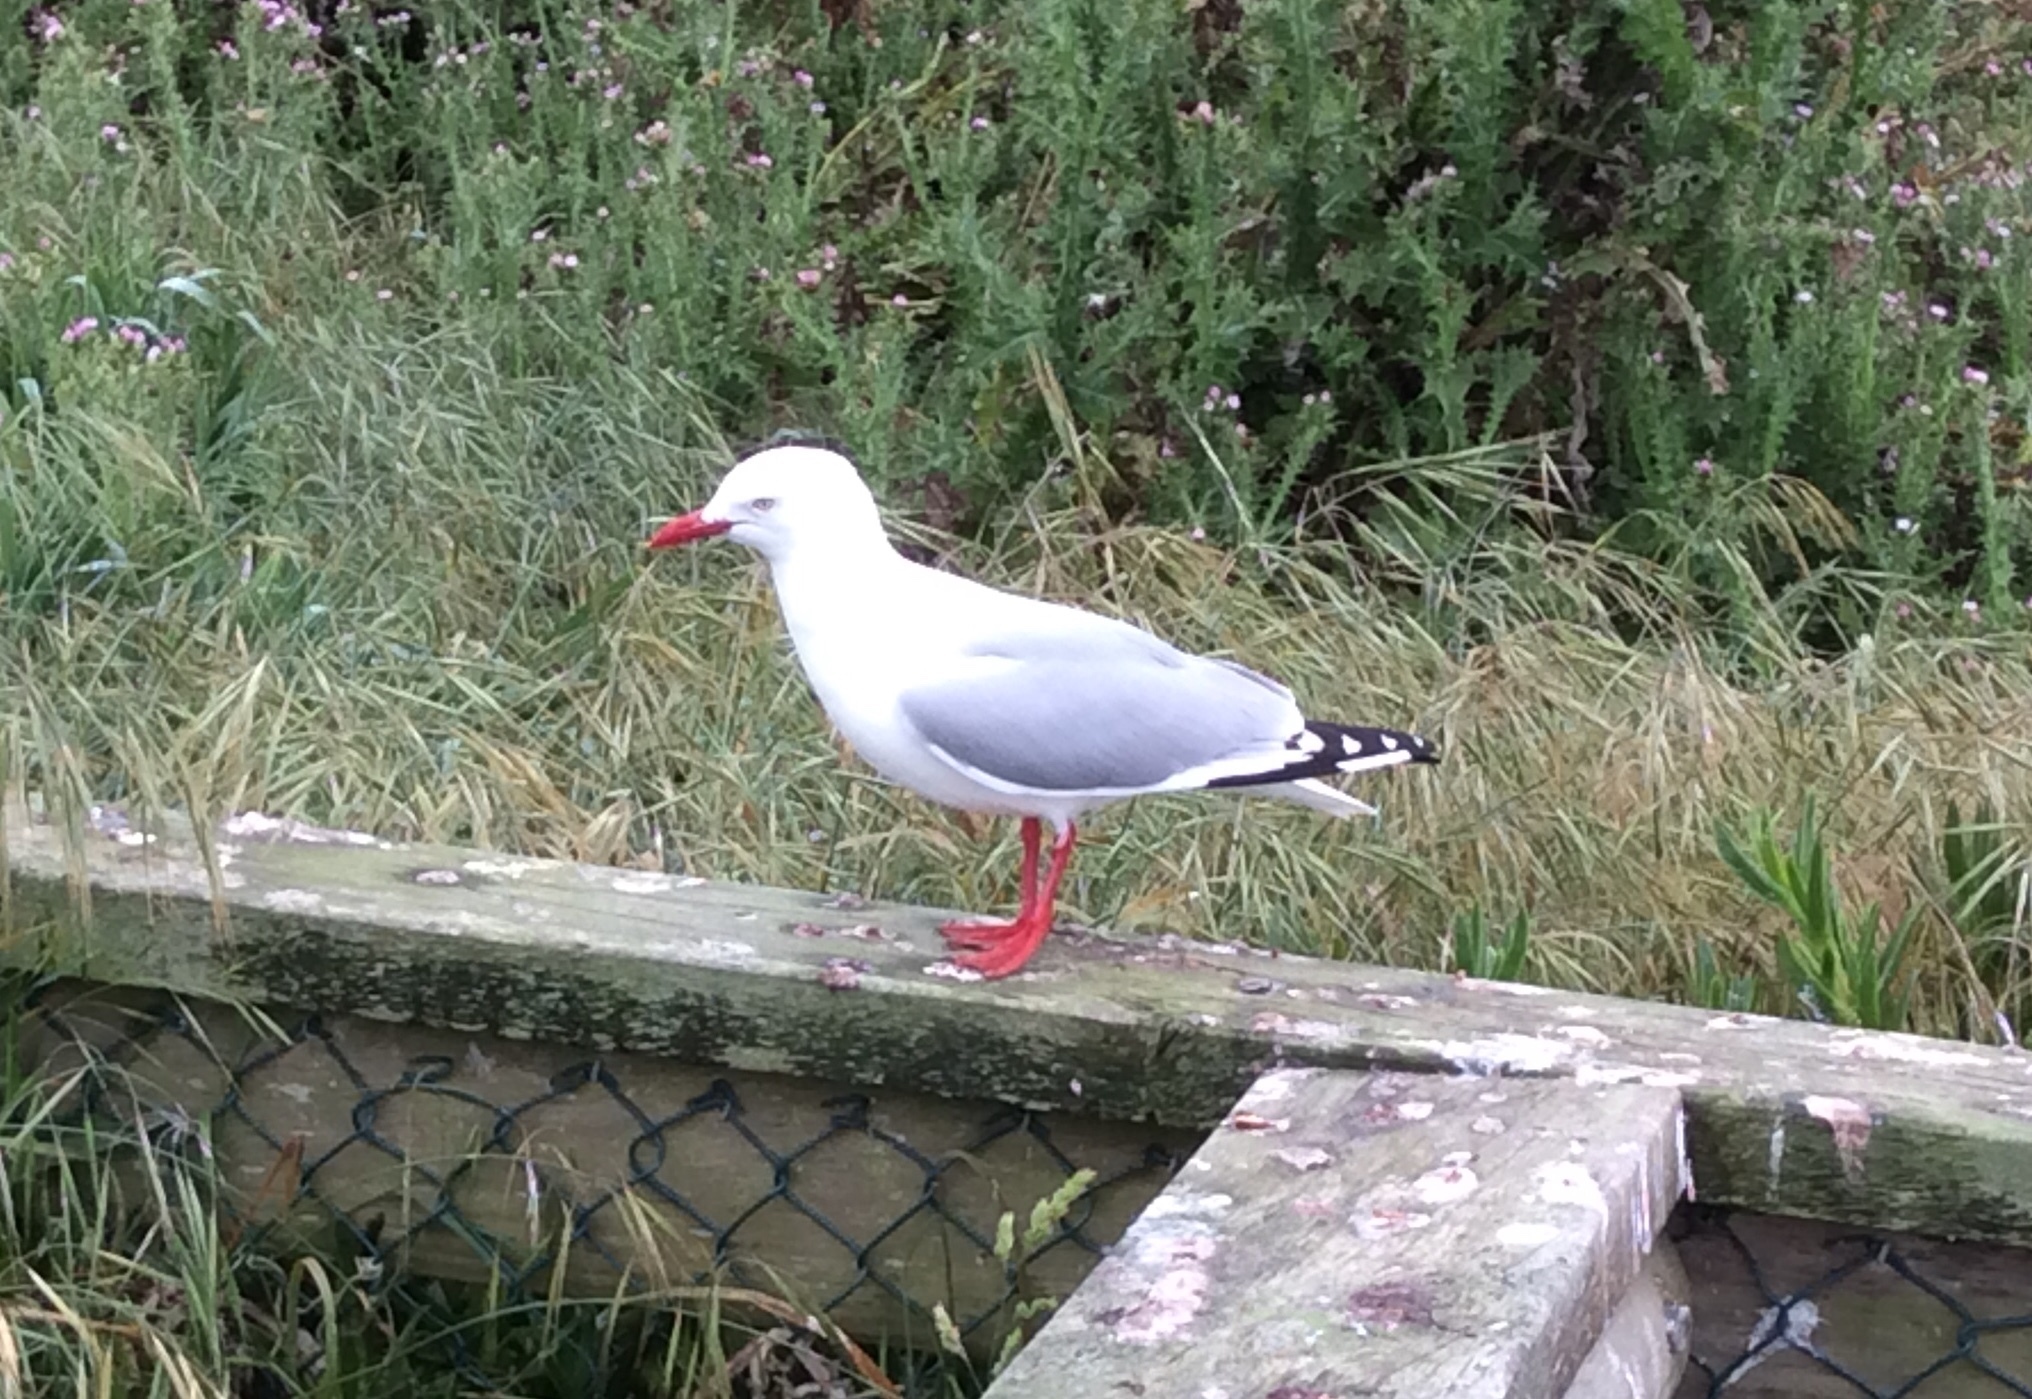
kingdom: Animalia
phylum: Chordata
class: Aves
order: Charadriiformes
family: Laridae
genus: Chroicocephalus
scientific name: Chroicocephalus novaehollandiae
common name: Silver gull
